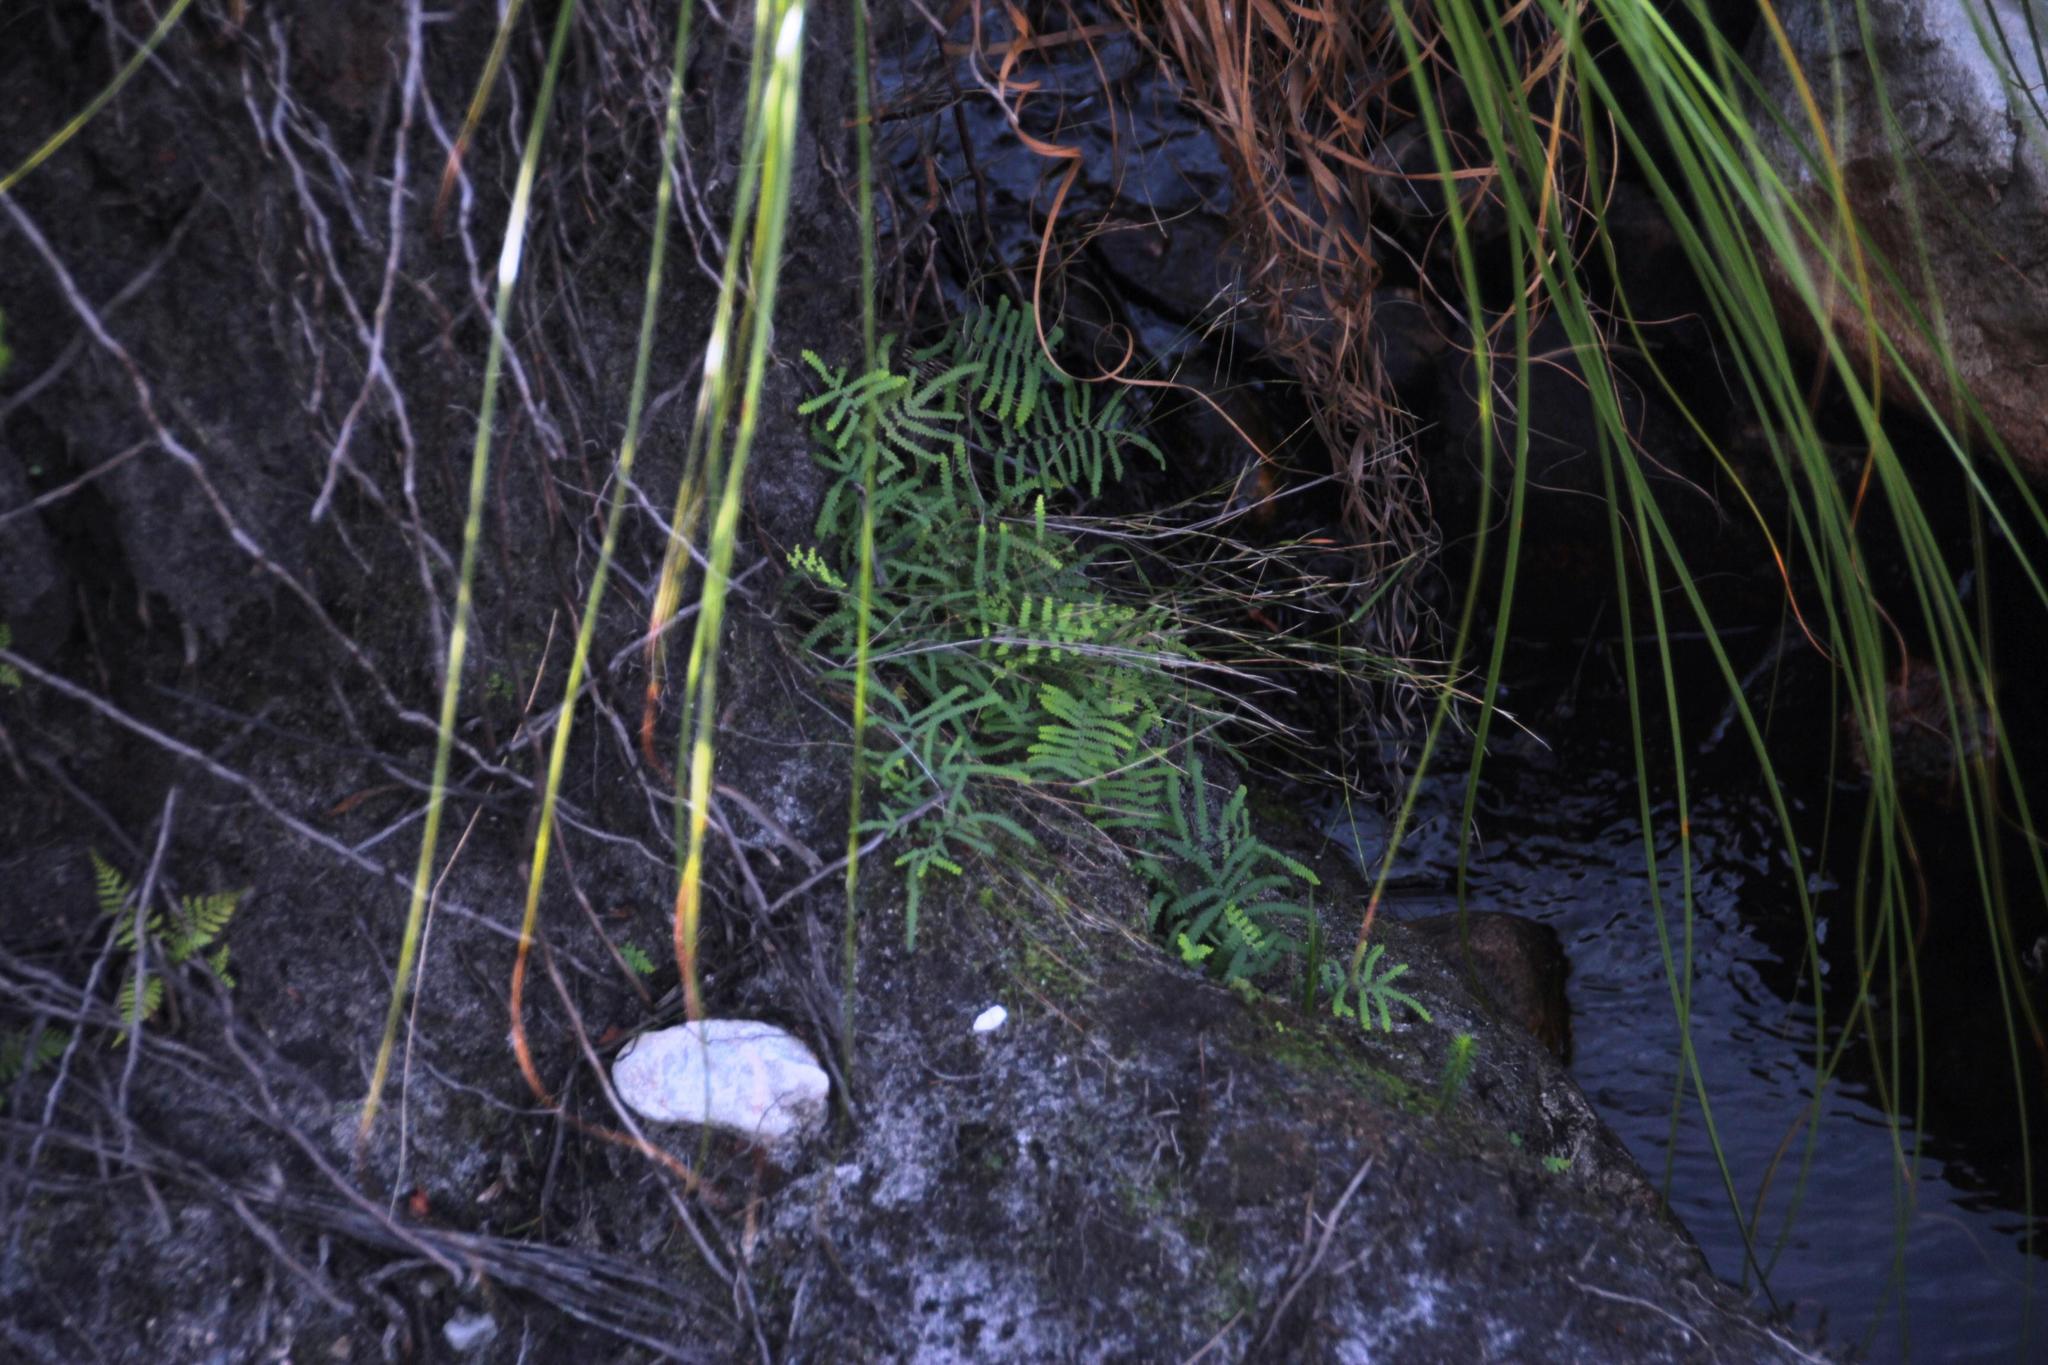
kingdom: Plantae
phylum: Tracheophyta
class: Polypodiopsida
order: Gleicheniales
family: Gleicheniaceae
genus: Gleichenia
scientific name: Gleichenia polypodioides
